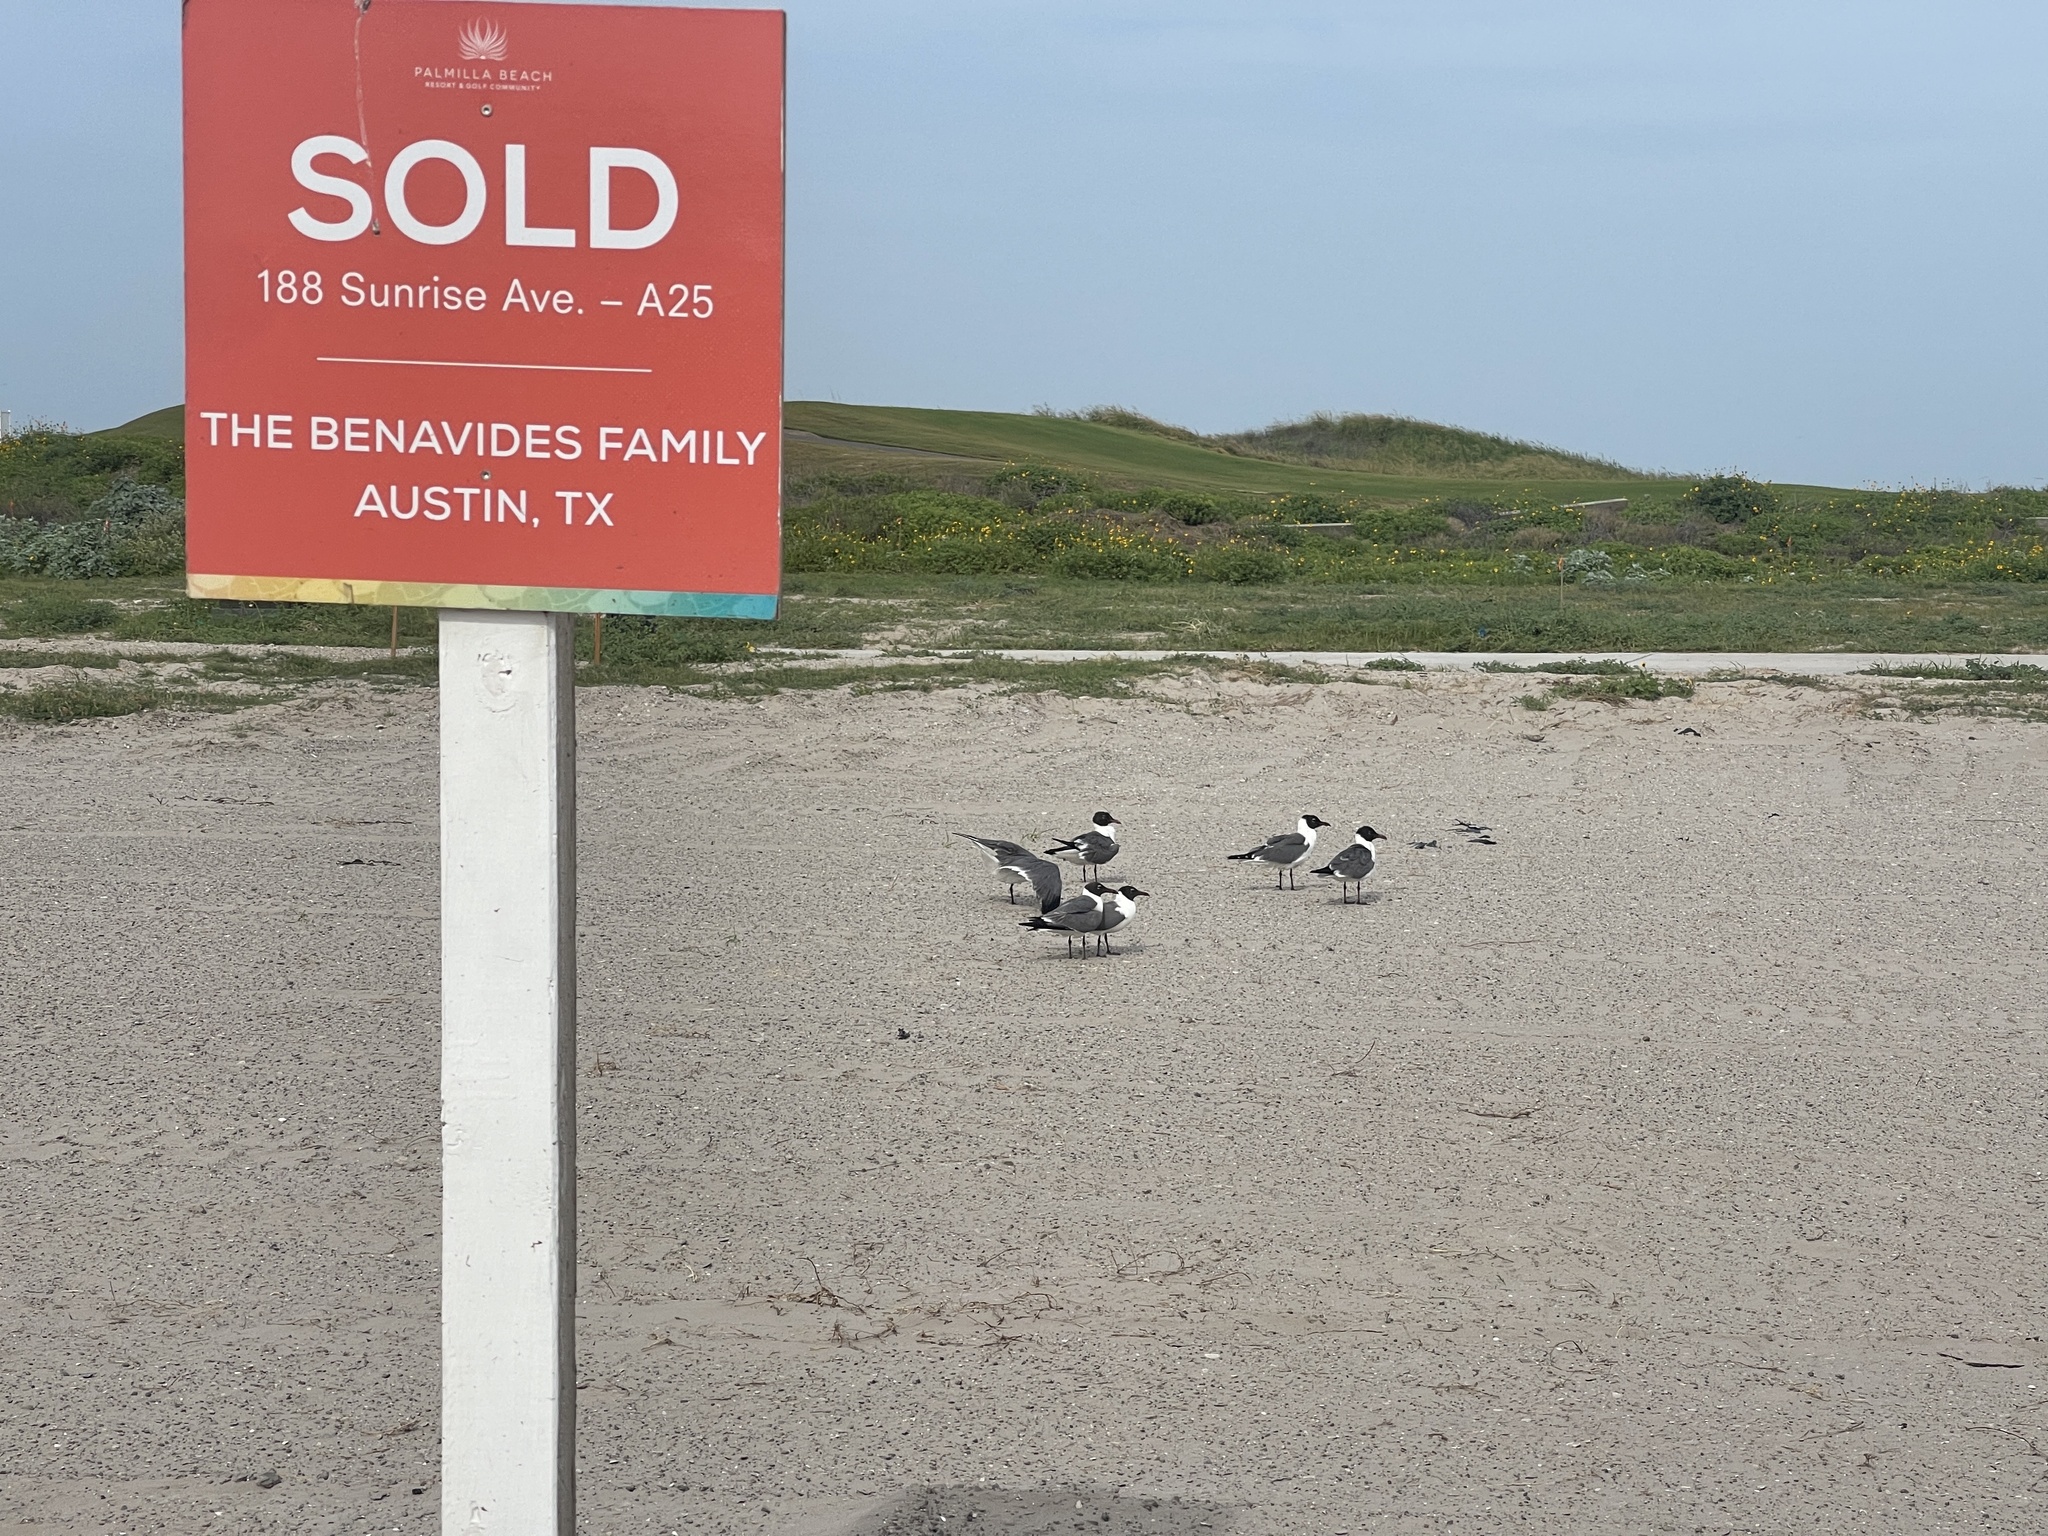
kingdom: Animalia
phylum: Chordata
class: Aves
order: Charadriiformes
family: Laridae
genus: Leucophaeus
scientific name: Leucophaeus atricilla
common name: Laughing gull
